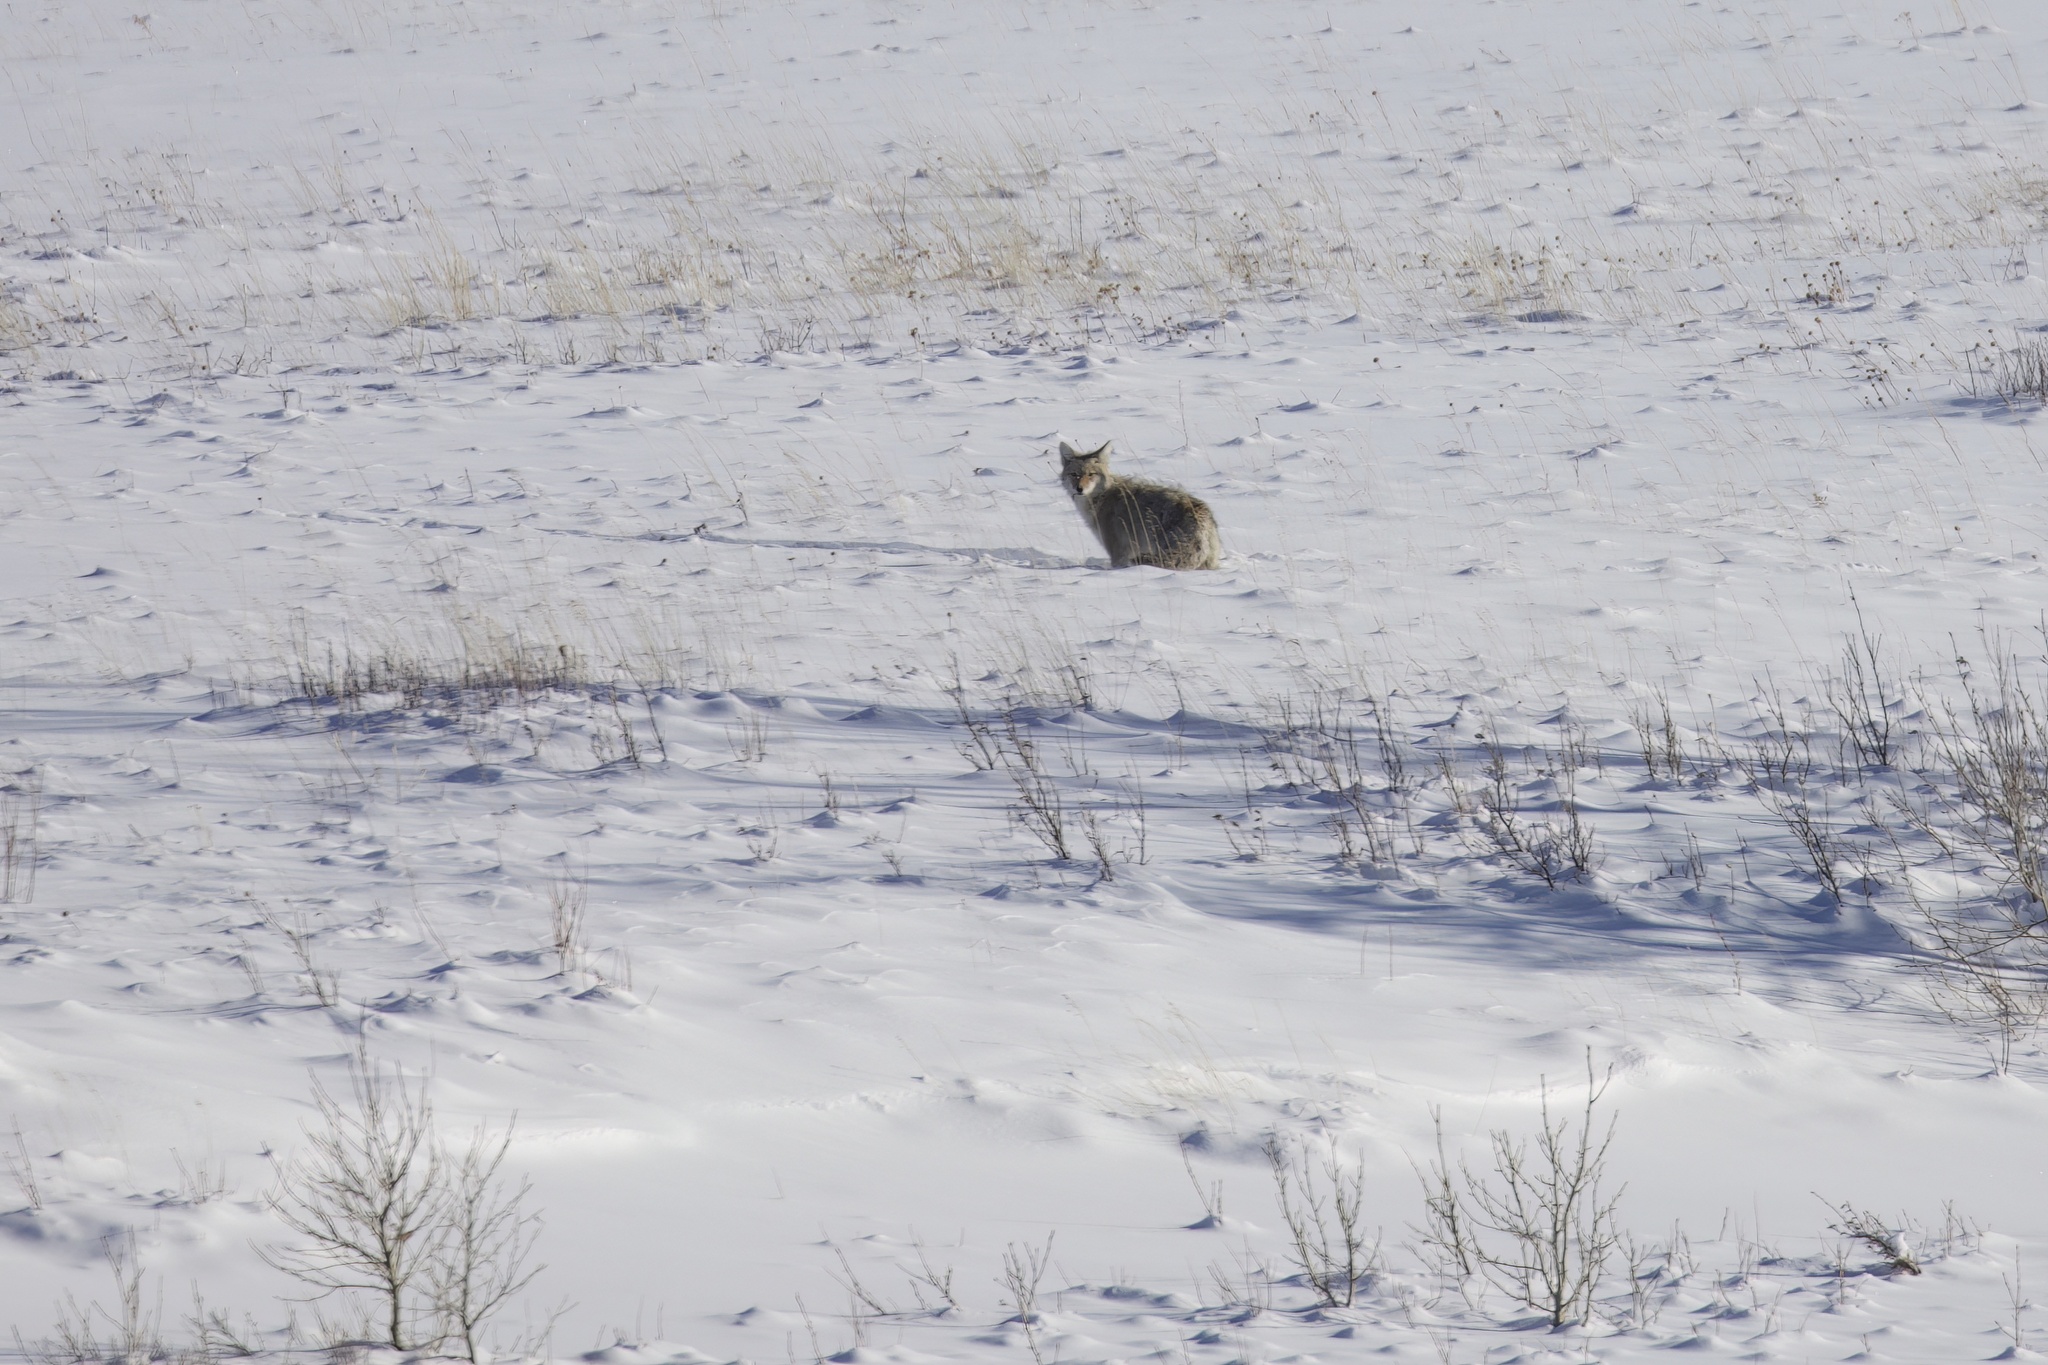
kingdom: Animalia
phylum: Chordata
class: Mammalia
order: Carnivora
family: Canidae
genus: Canis
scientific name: Canis latrans
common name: Coyote
